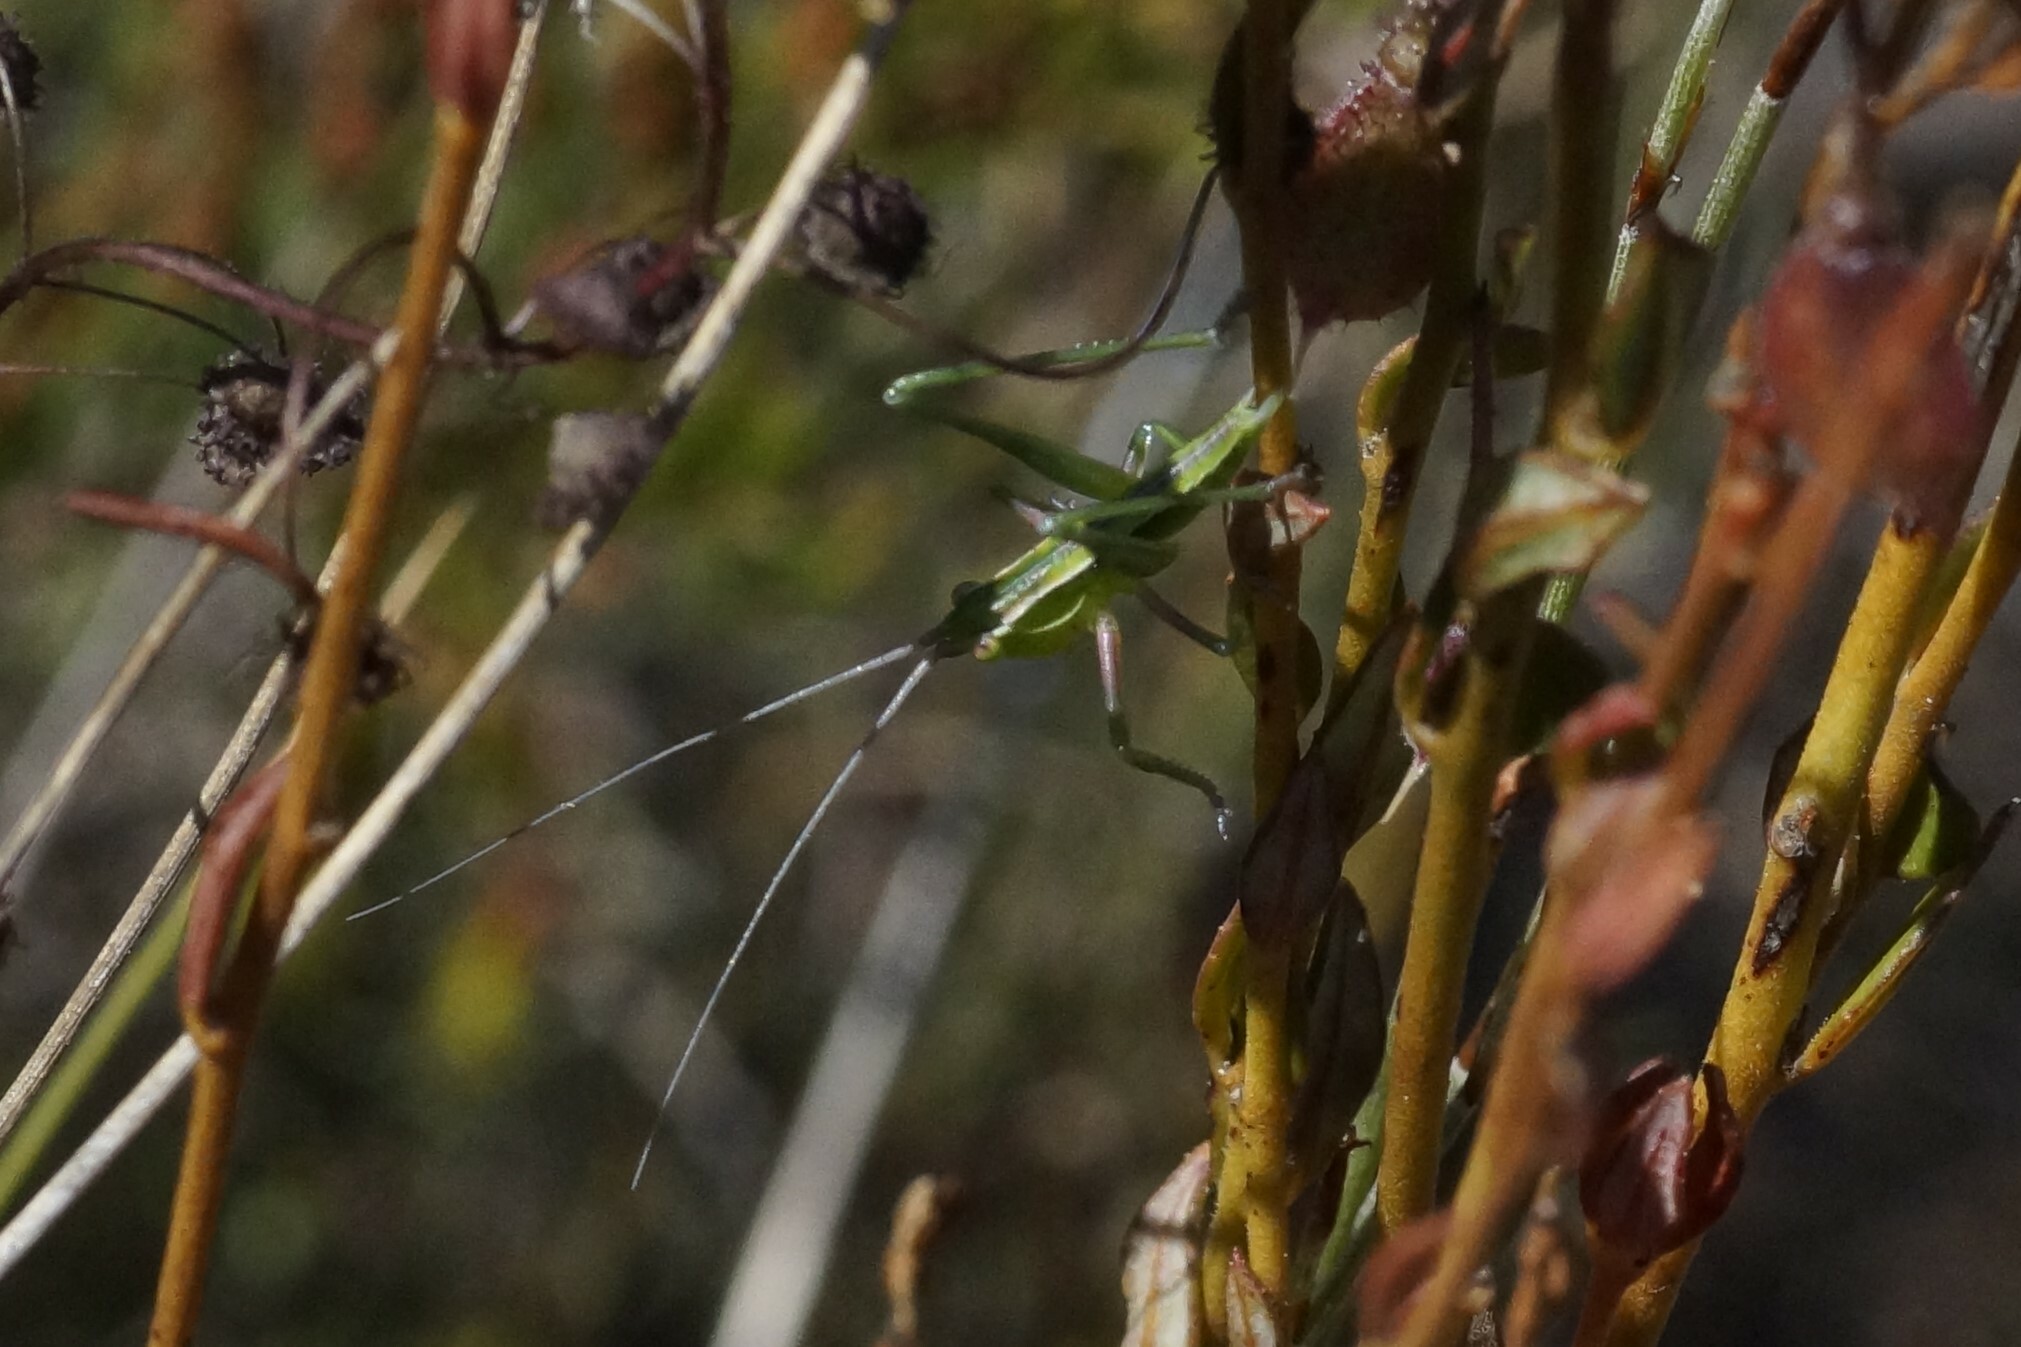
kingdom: Animalia
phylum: Arthropoda
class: Insecta
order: Orthoptera
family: Tettigoniidae
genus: Metaballus
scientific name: Metaballus sagaeformis
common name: Adelaide marauding katydid
